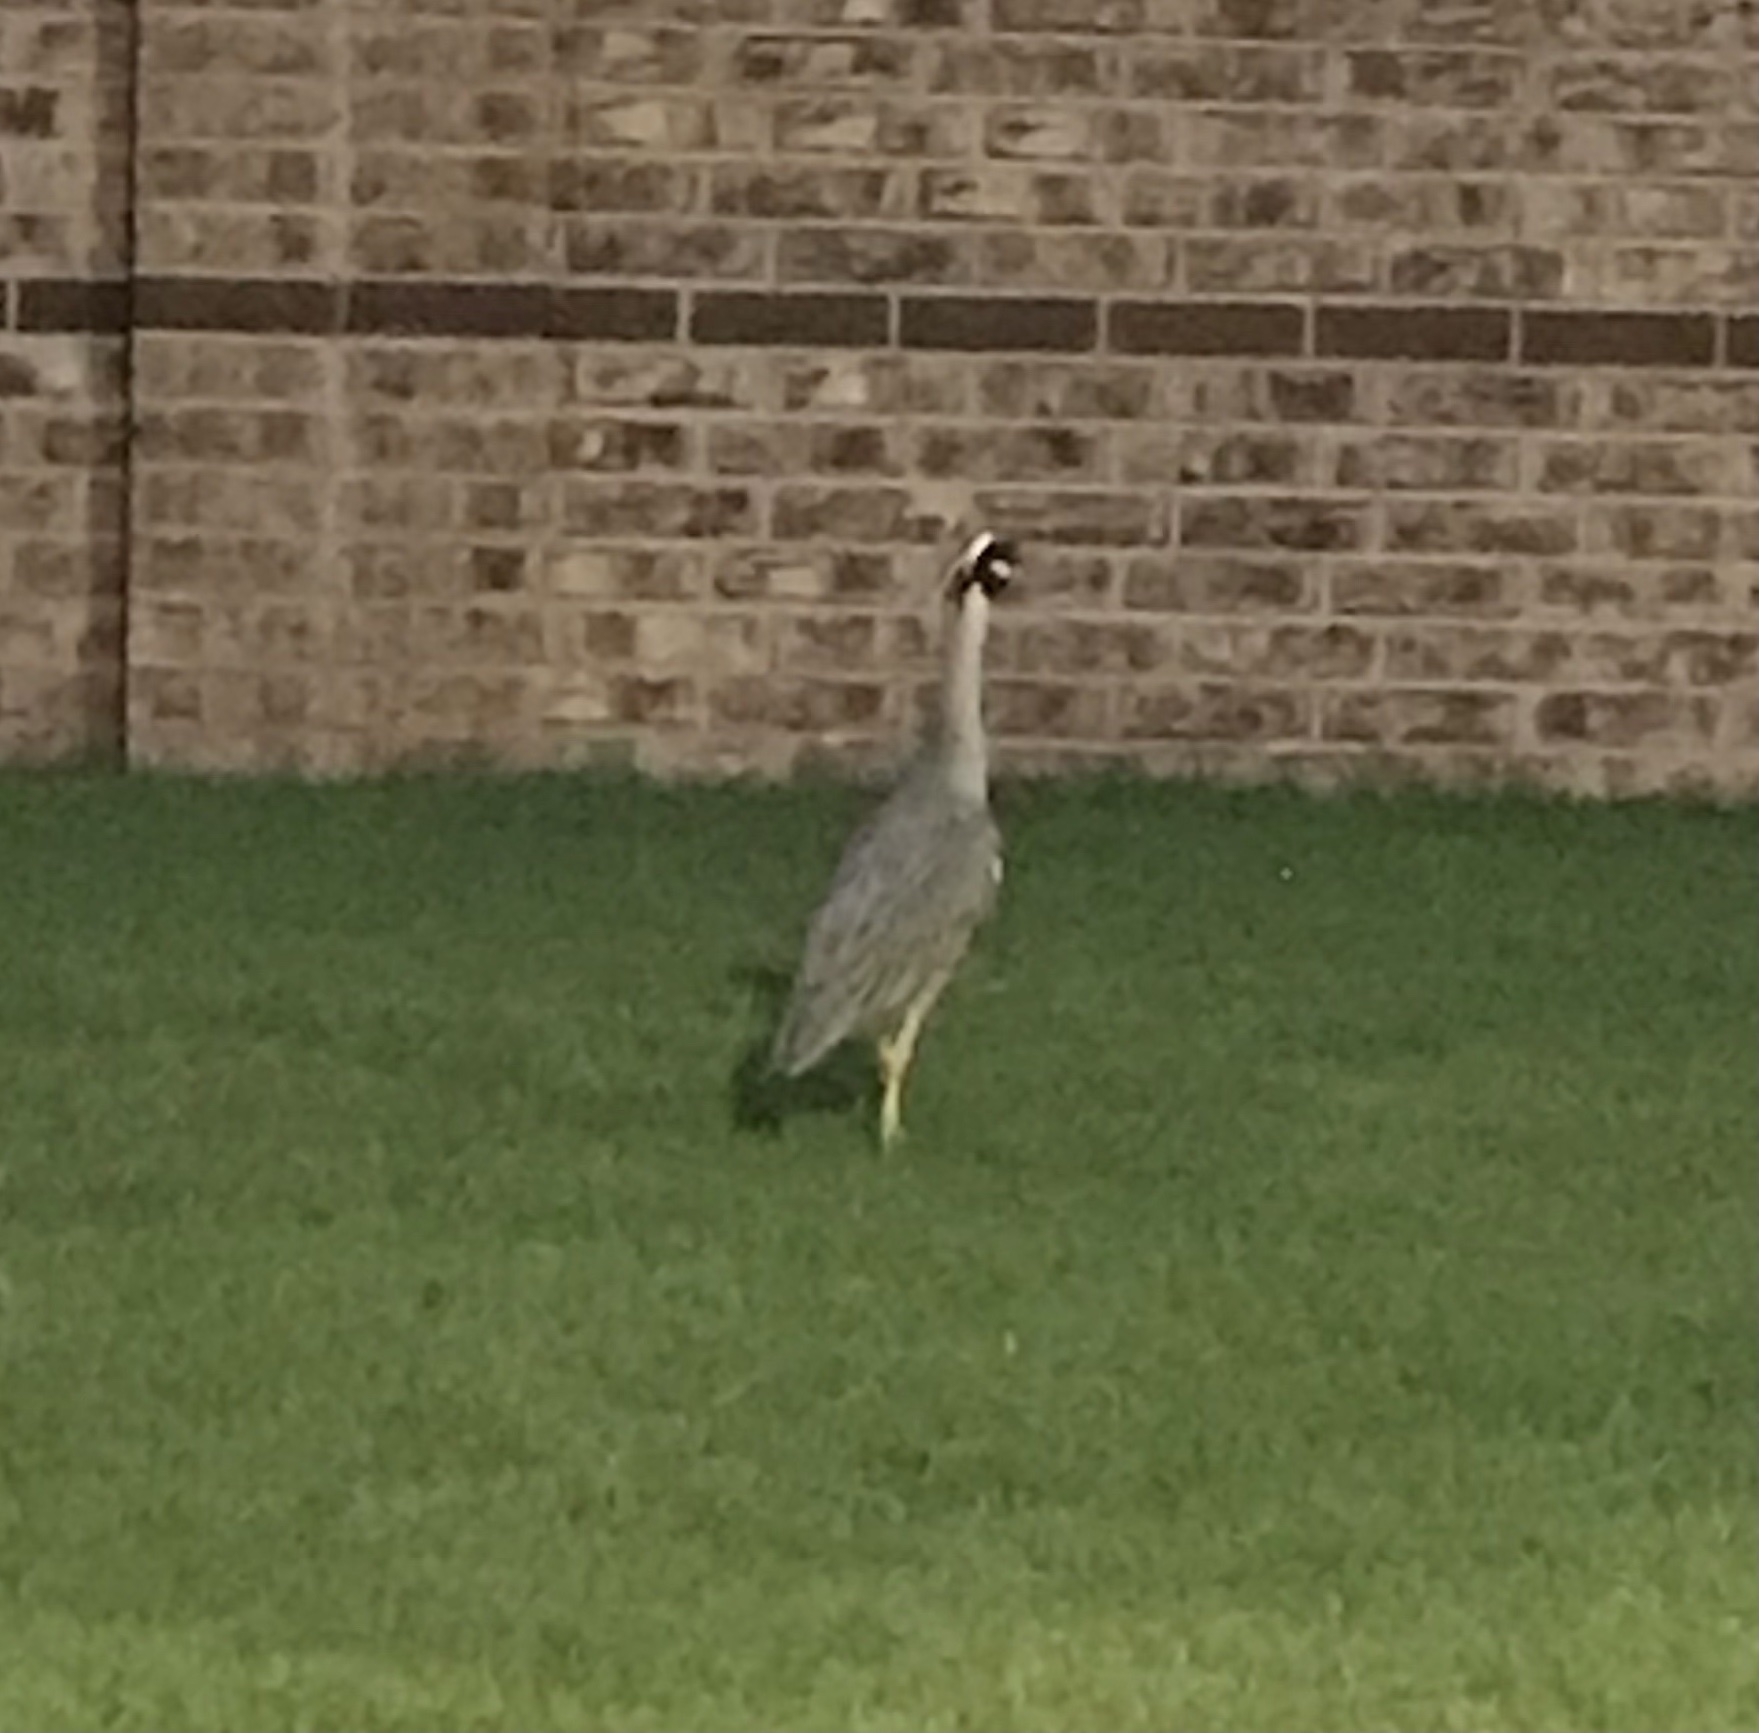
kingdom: Animalia
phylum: Chordata
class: Aves
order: Pelecaniformes
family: Ardeidae
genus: Nyctanassa
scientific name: Nyctanassa violacea
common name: Yellow-crowned night heron
